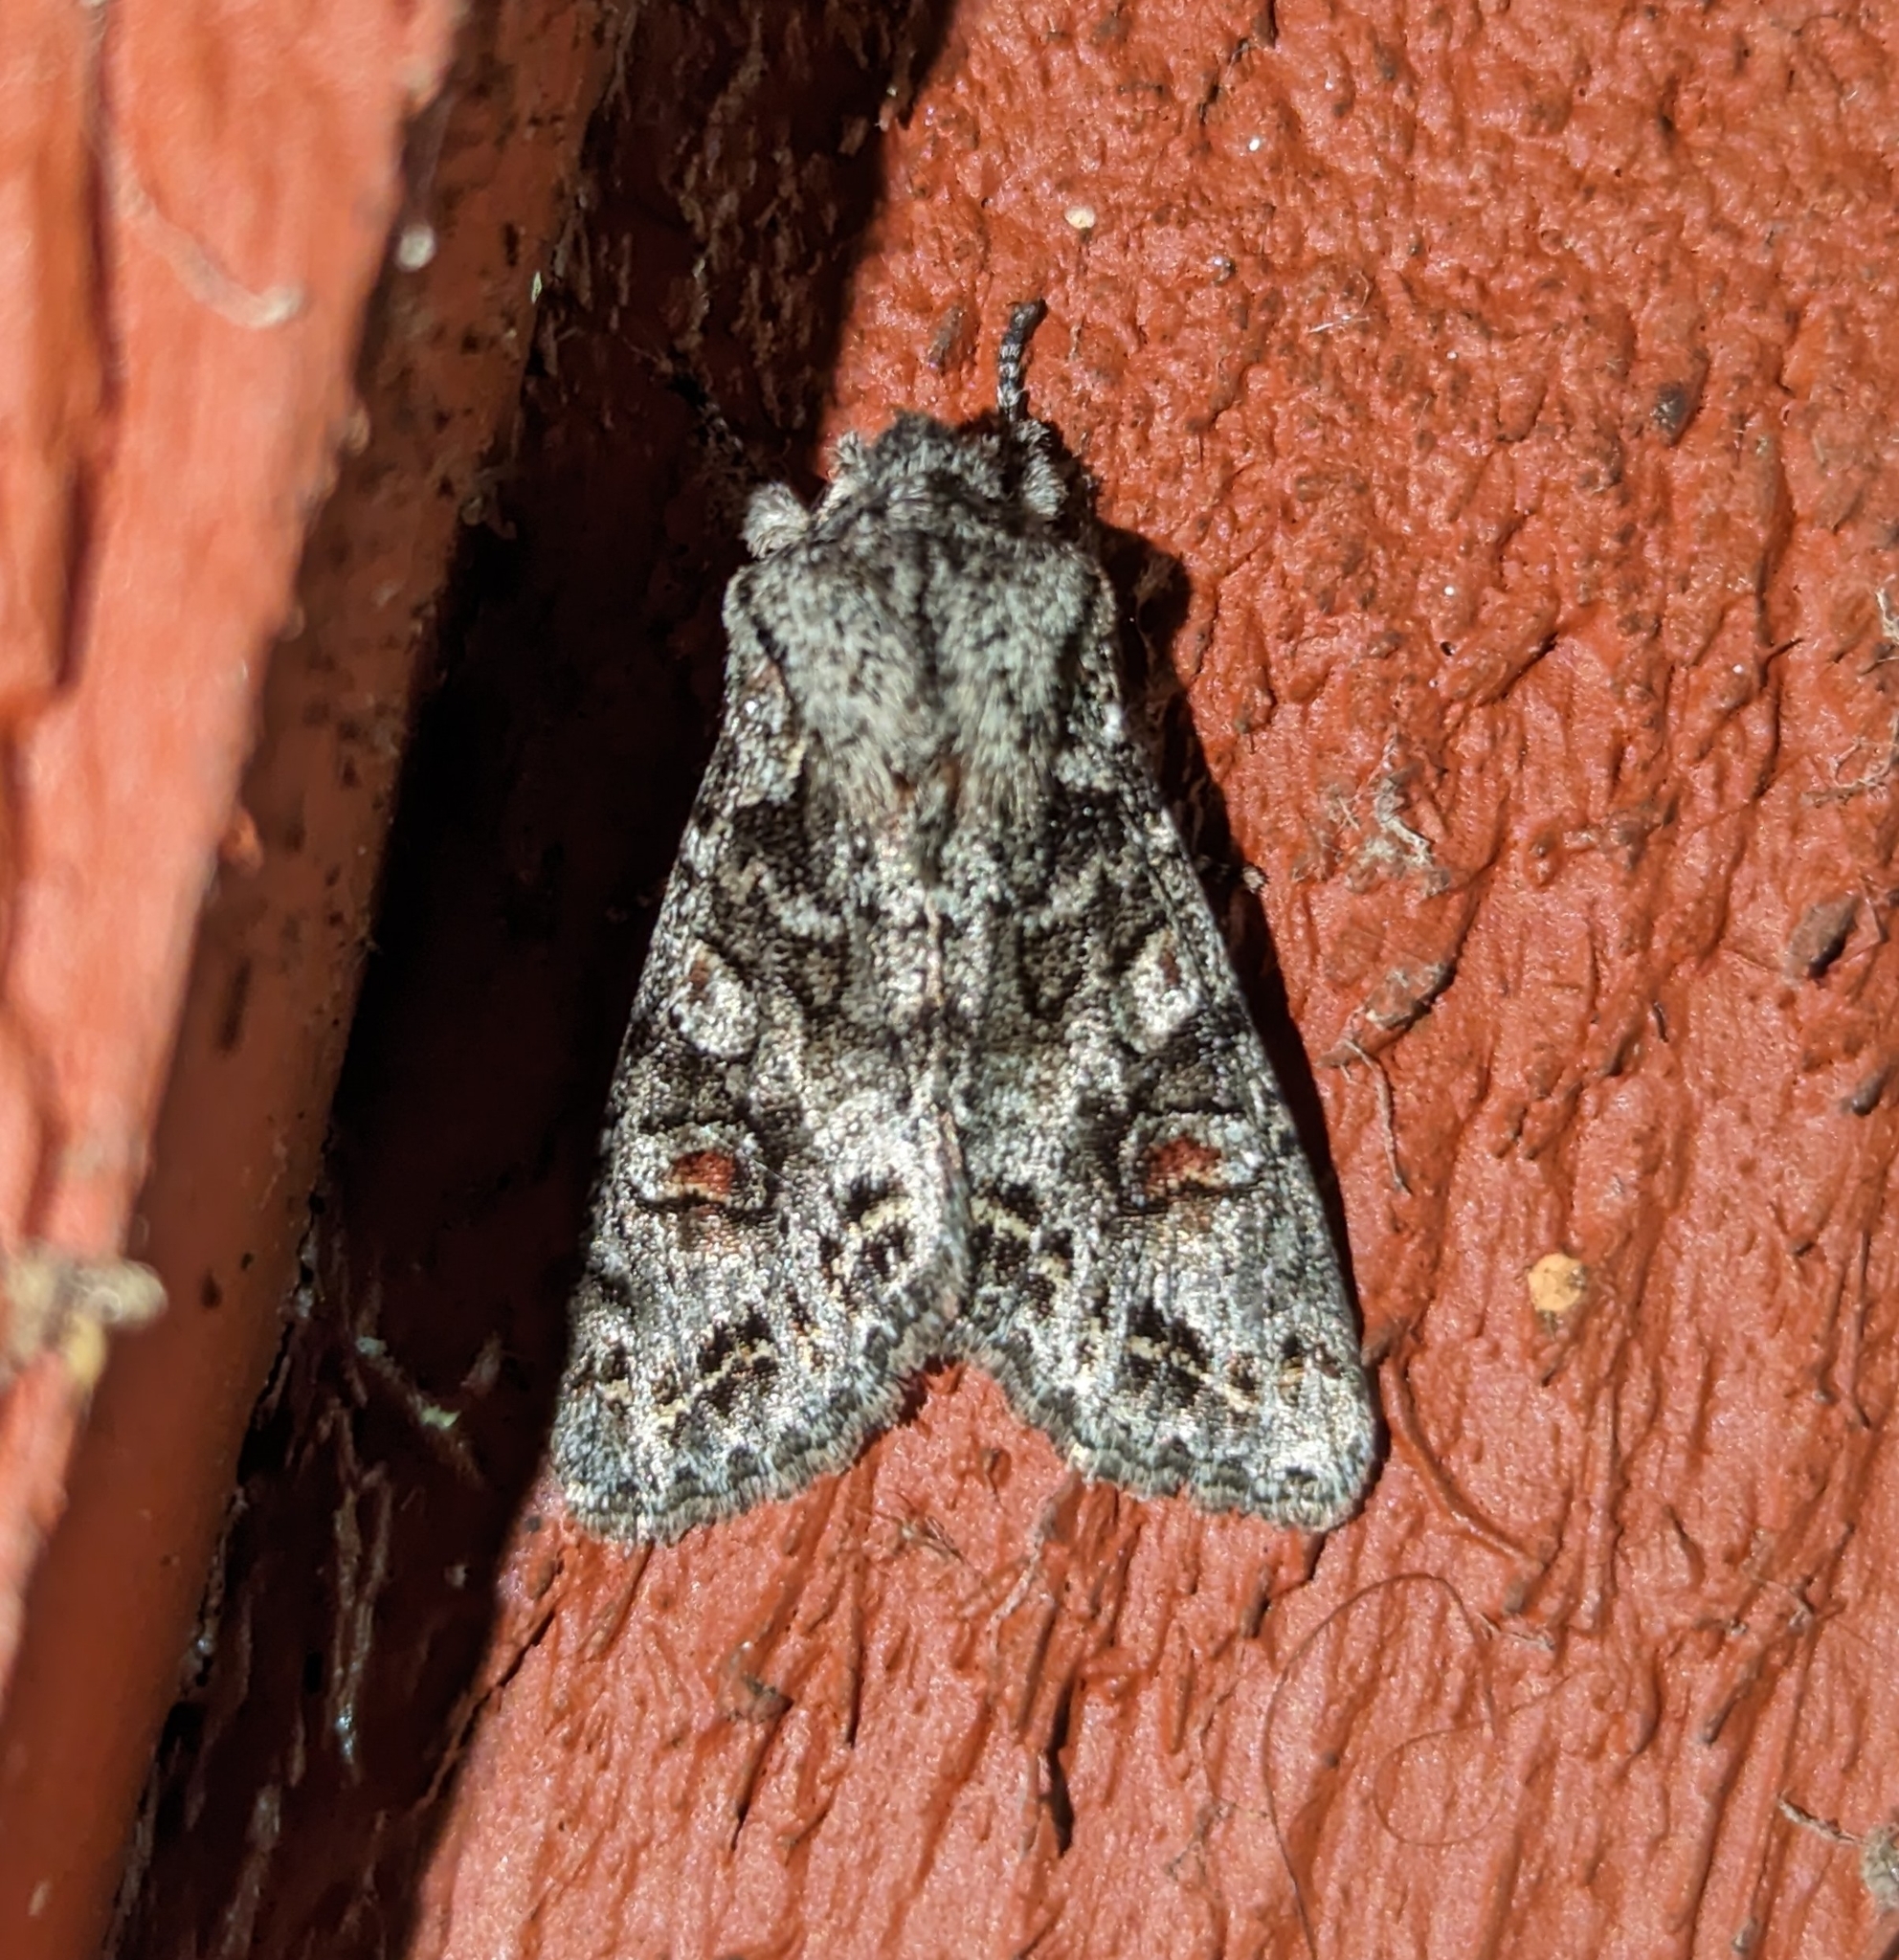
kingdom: Animalia
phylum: Arthropoda
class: Insecta
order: Lepidoptera
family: Noctuidae
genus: Egira
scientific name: Egira hiemalis
